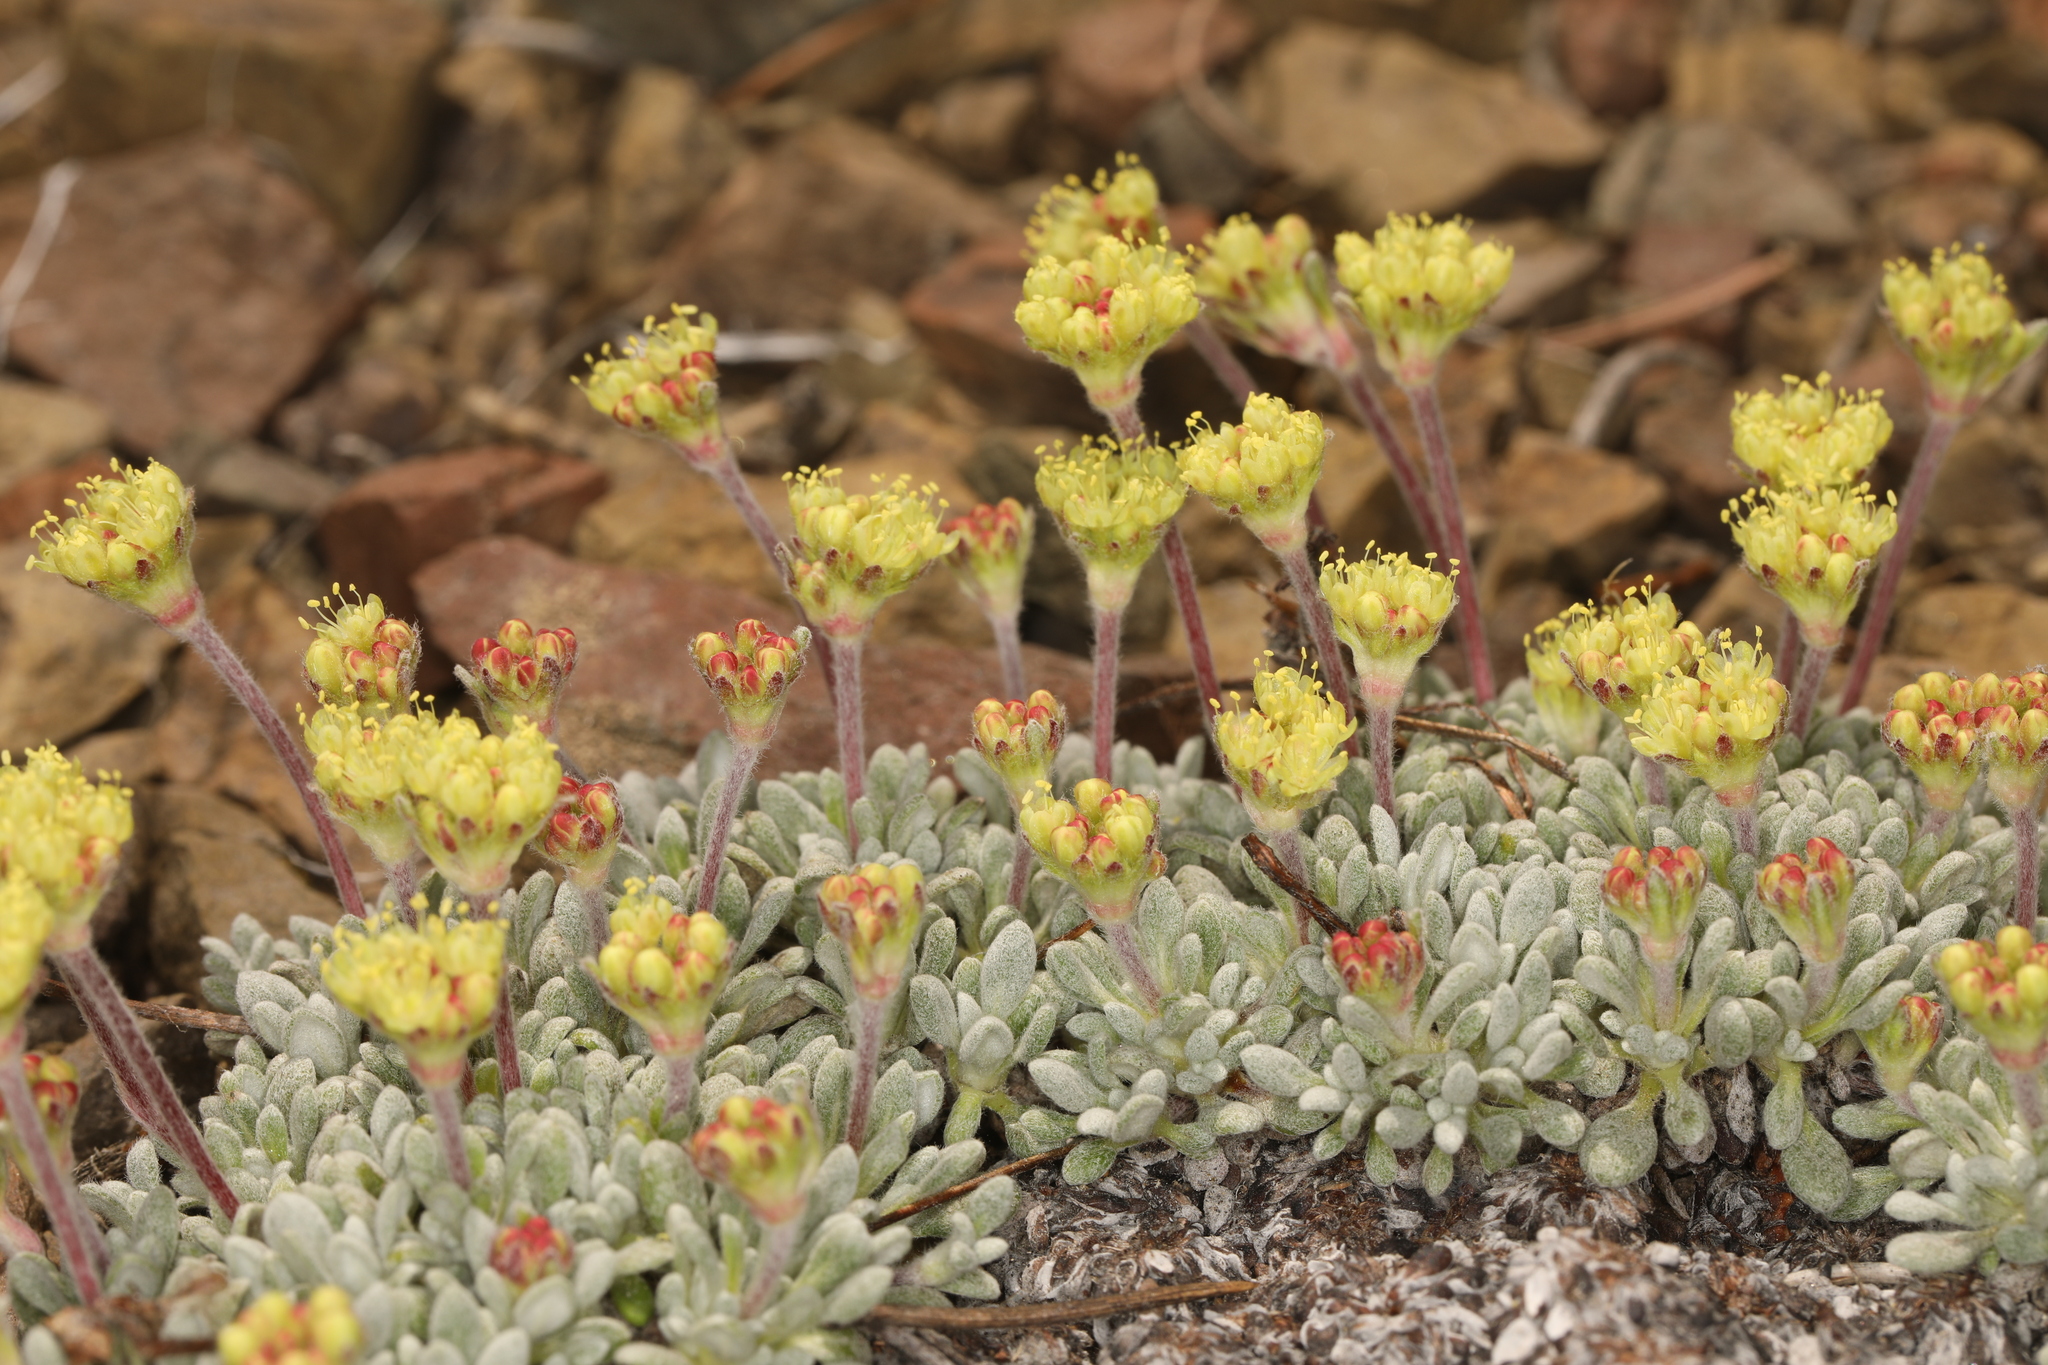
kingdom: Plantae
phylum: Tracheophyta
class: Magnoliopsida
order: Caryophyllales
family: Polygonaceae
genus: Eriogonum
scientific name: Eriogonum caespitosum
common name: Matted wild buckwheat
